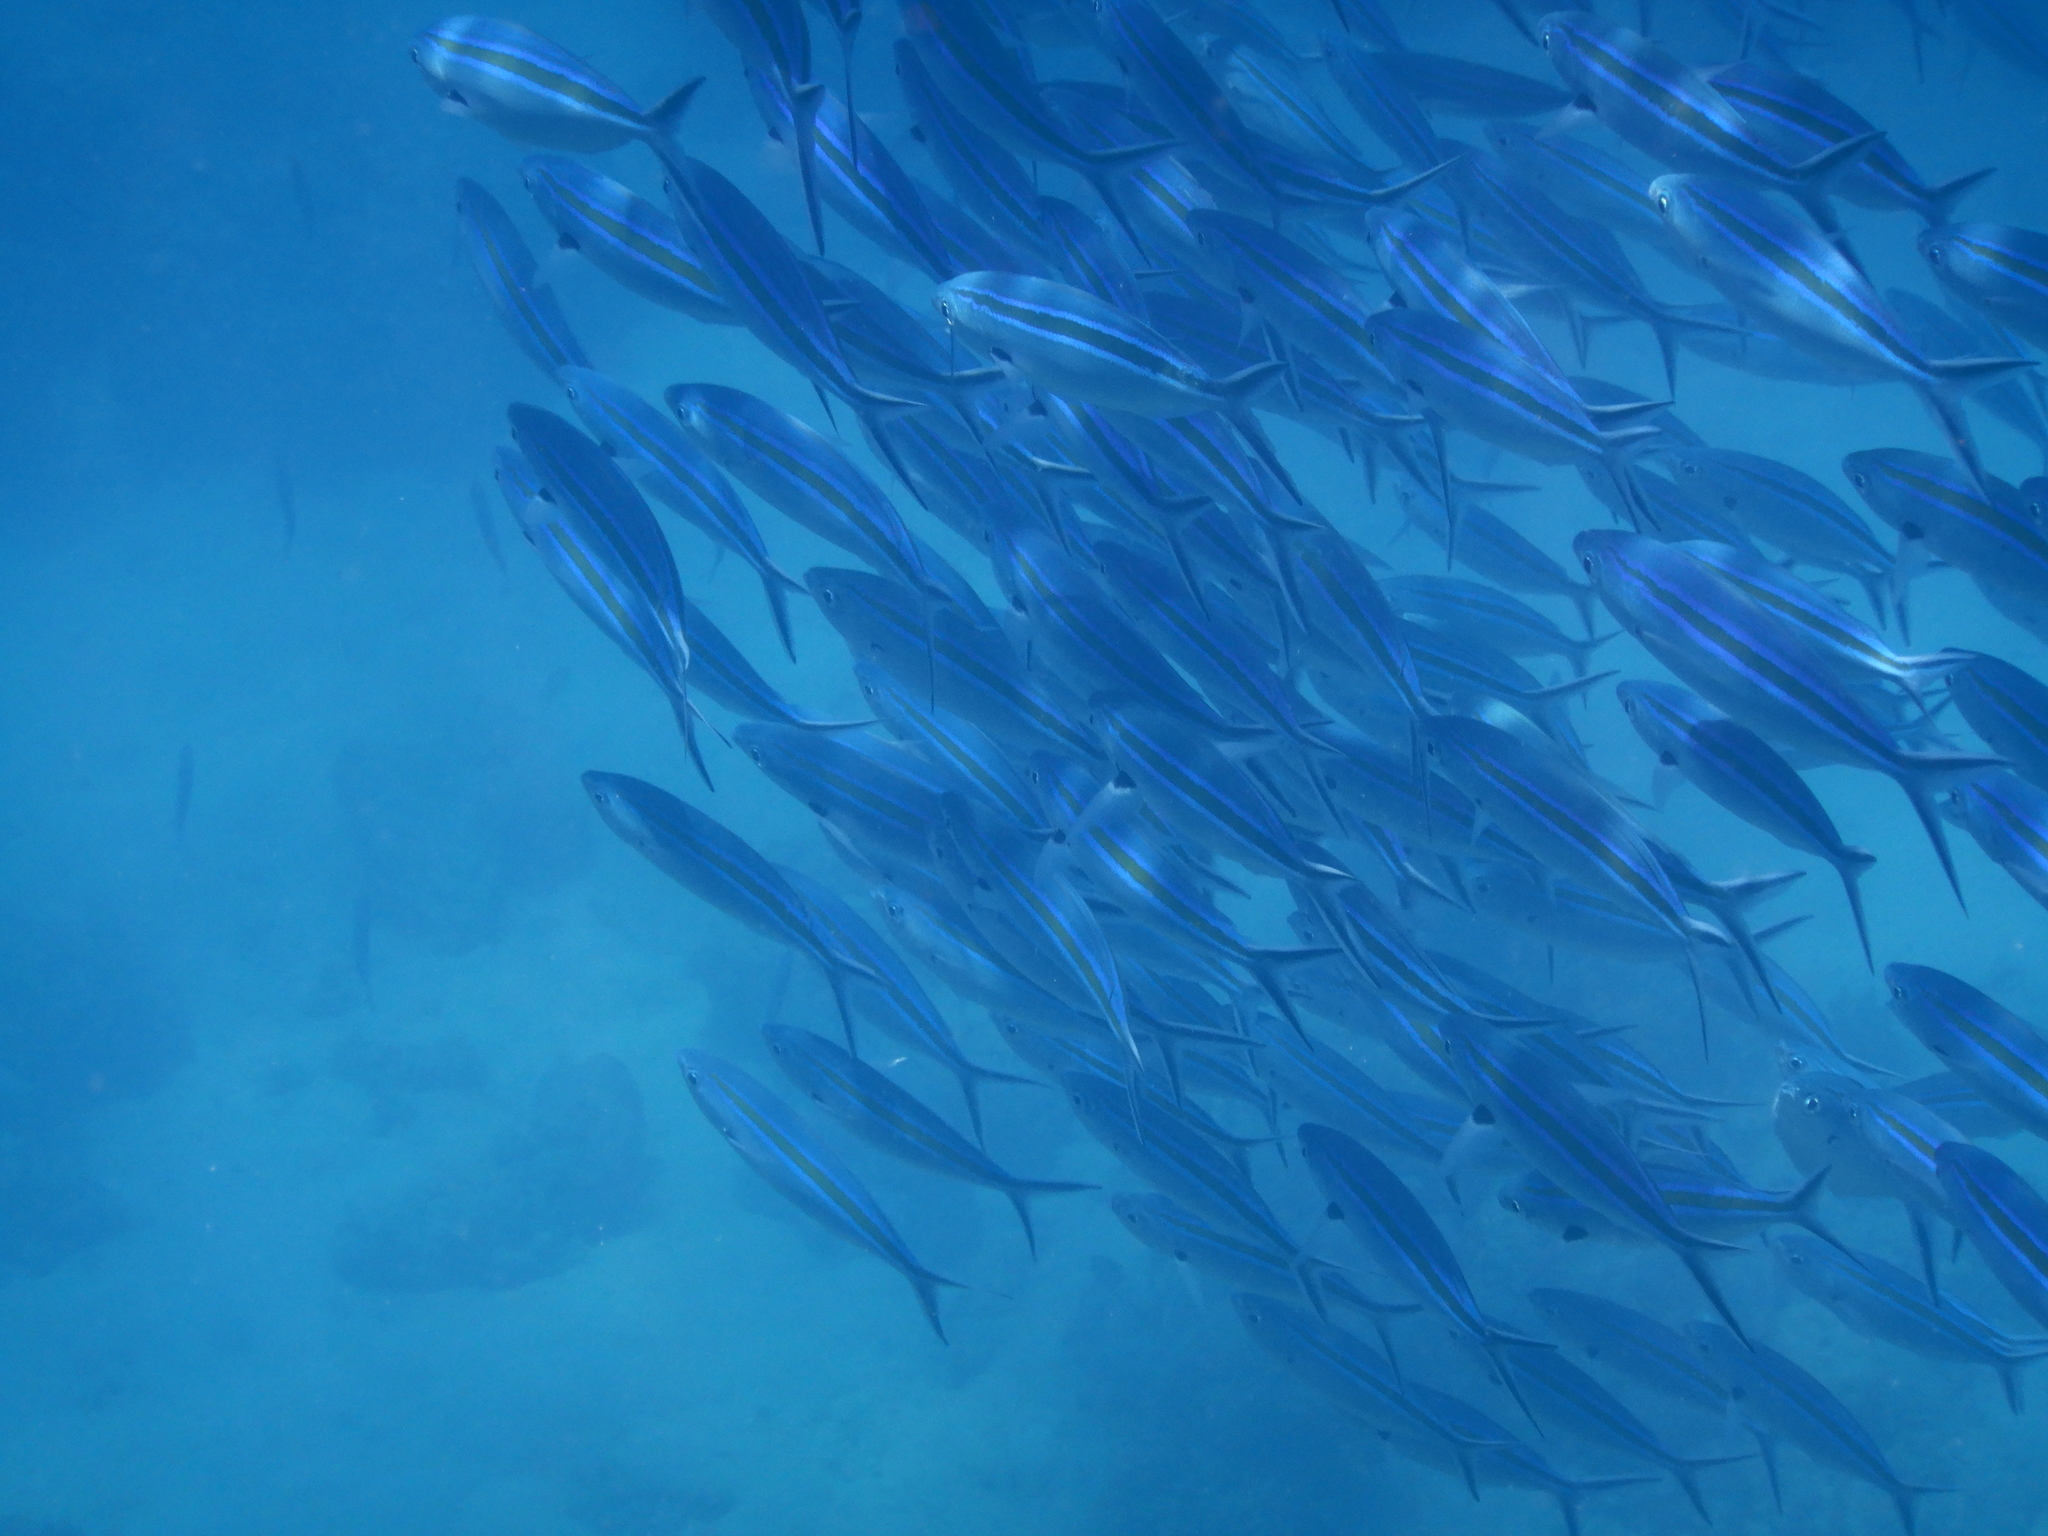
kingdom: Animalia
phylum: Chordata
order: Perciformes
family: Caesionidae
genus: Caesio
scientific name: Caesio caerulaurea
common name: Blue and gold fusilier
